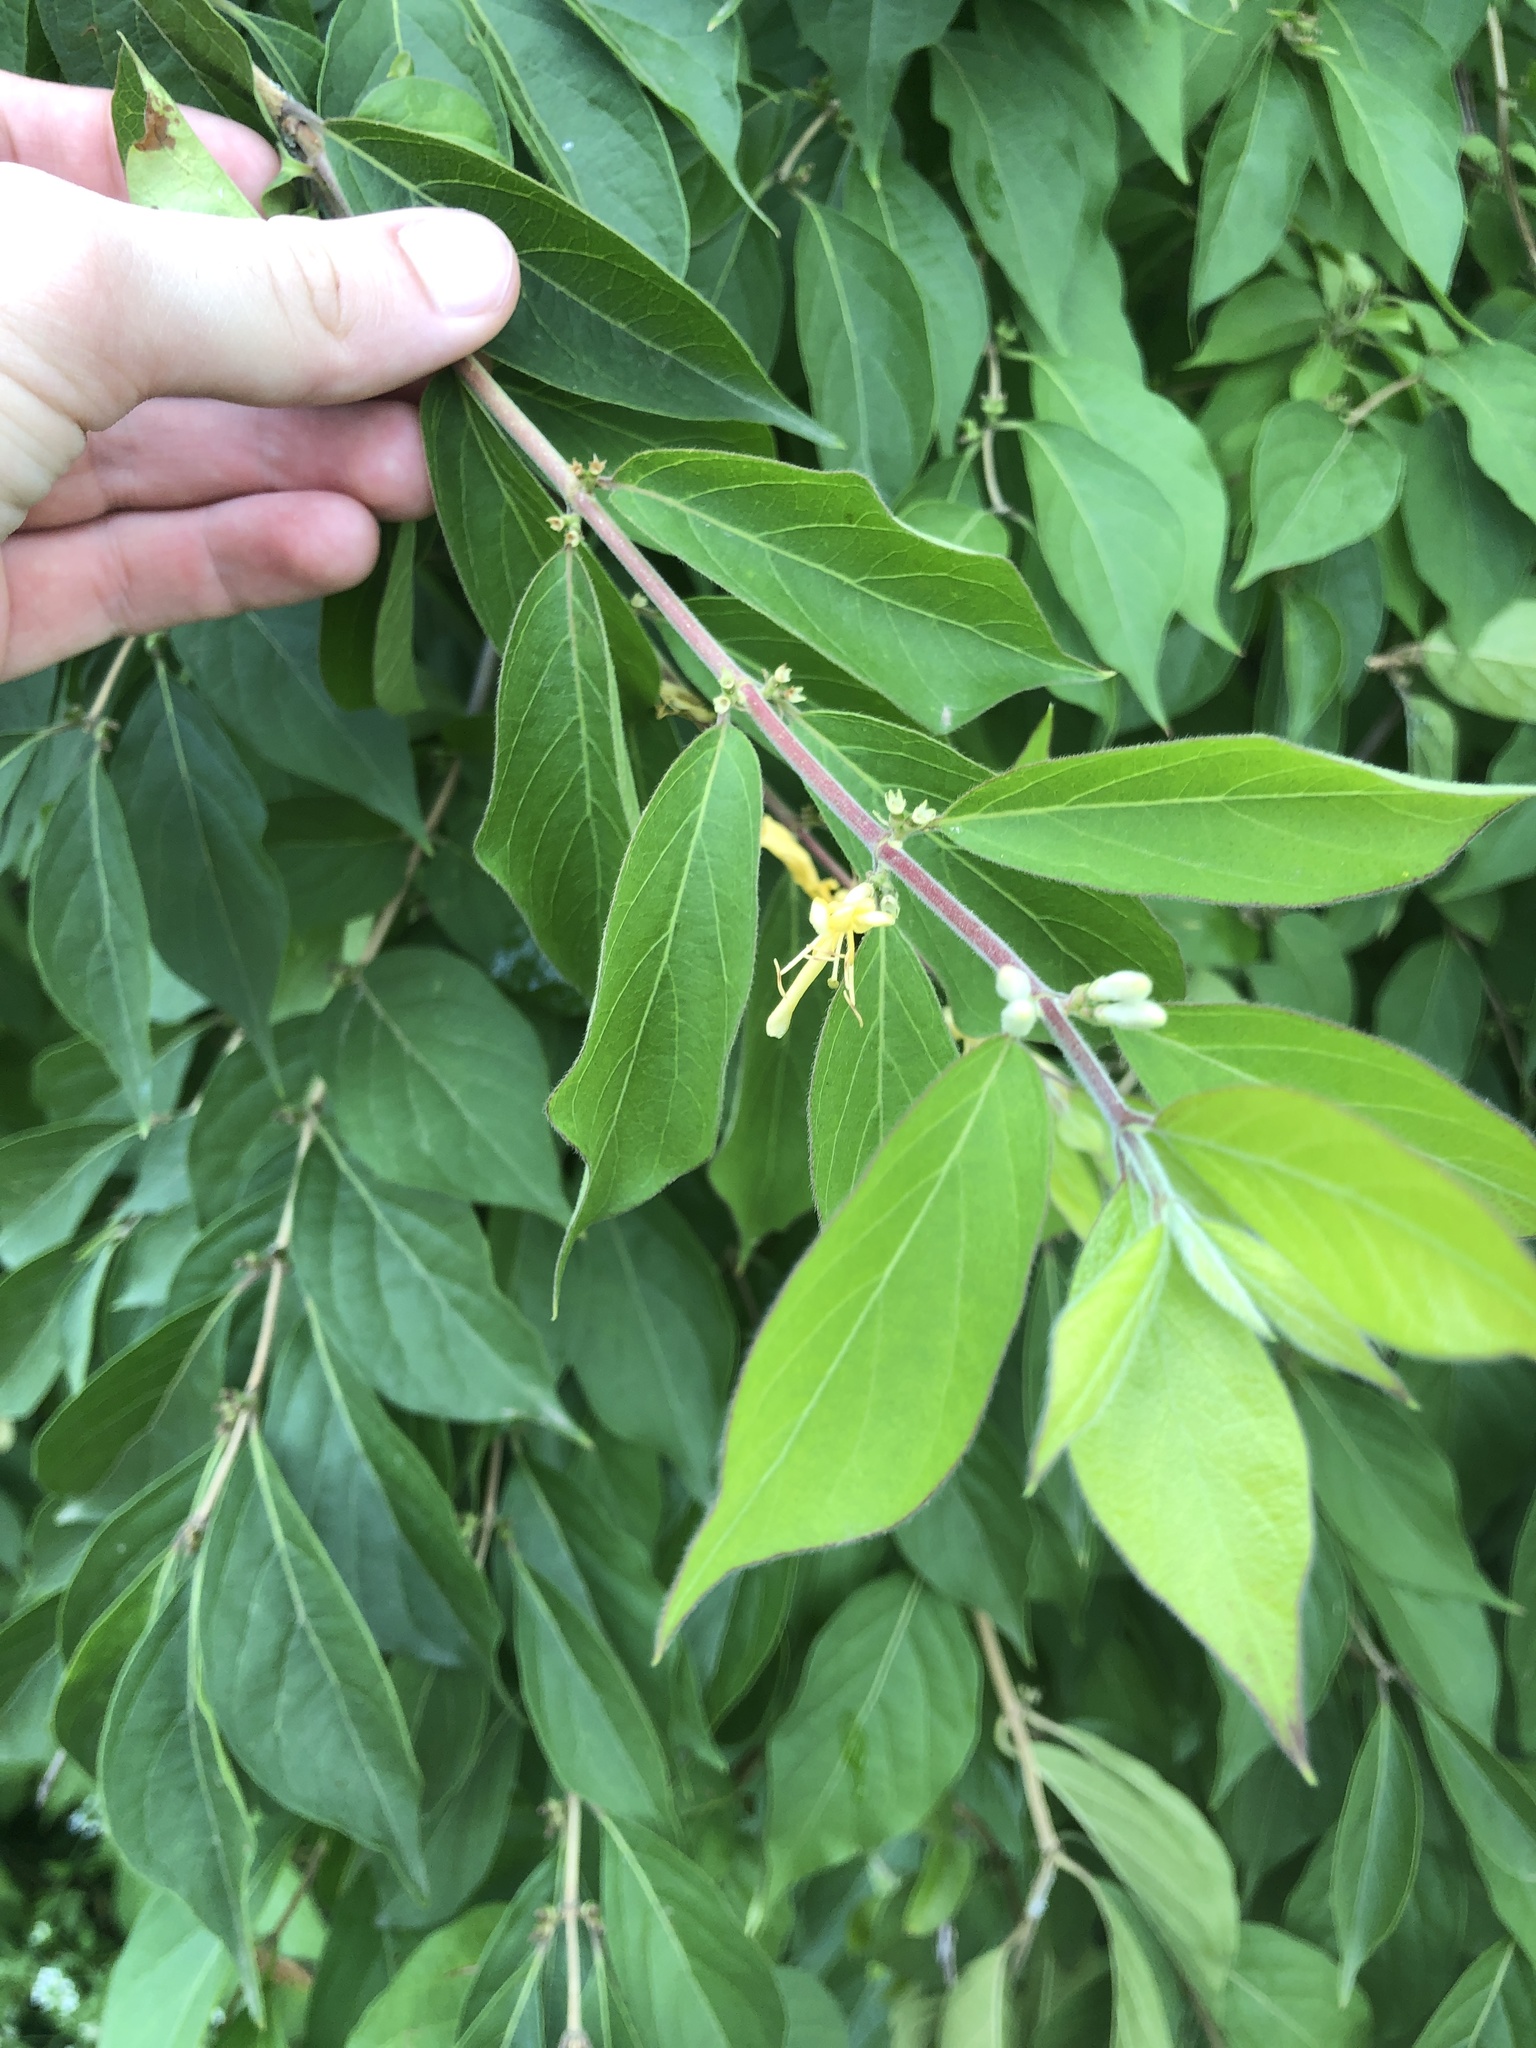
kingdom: Plantae
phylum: Tracheophyta
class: Magnoliopsida
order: Dipsacales
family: Caprifoliaceae
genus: Lonicera
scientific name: Lonicera maackii
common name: Amur honeysuckle
